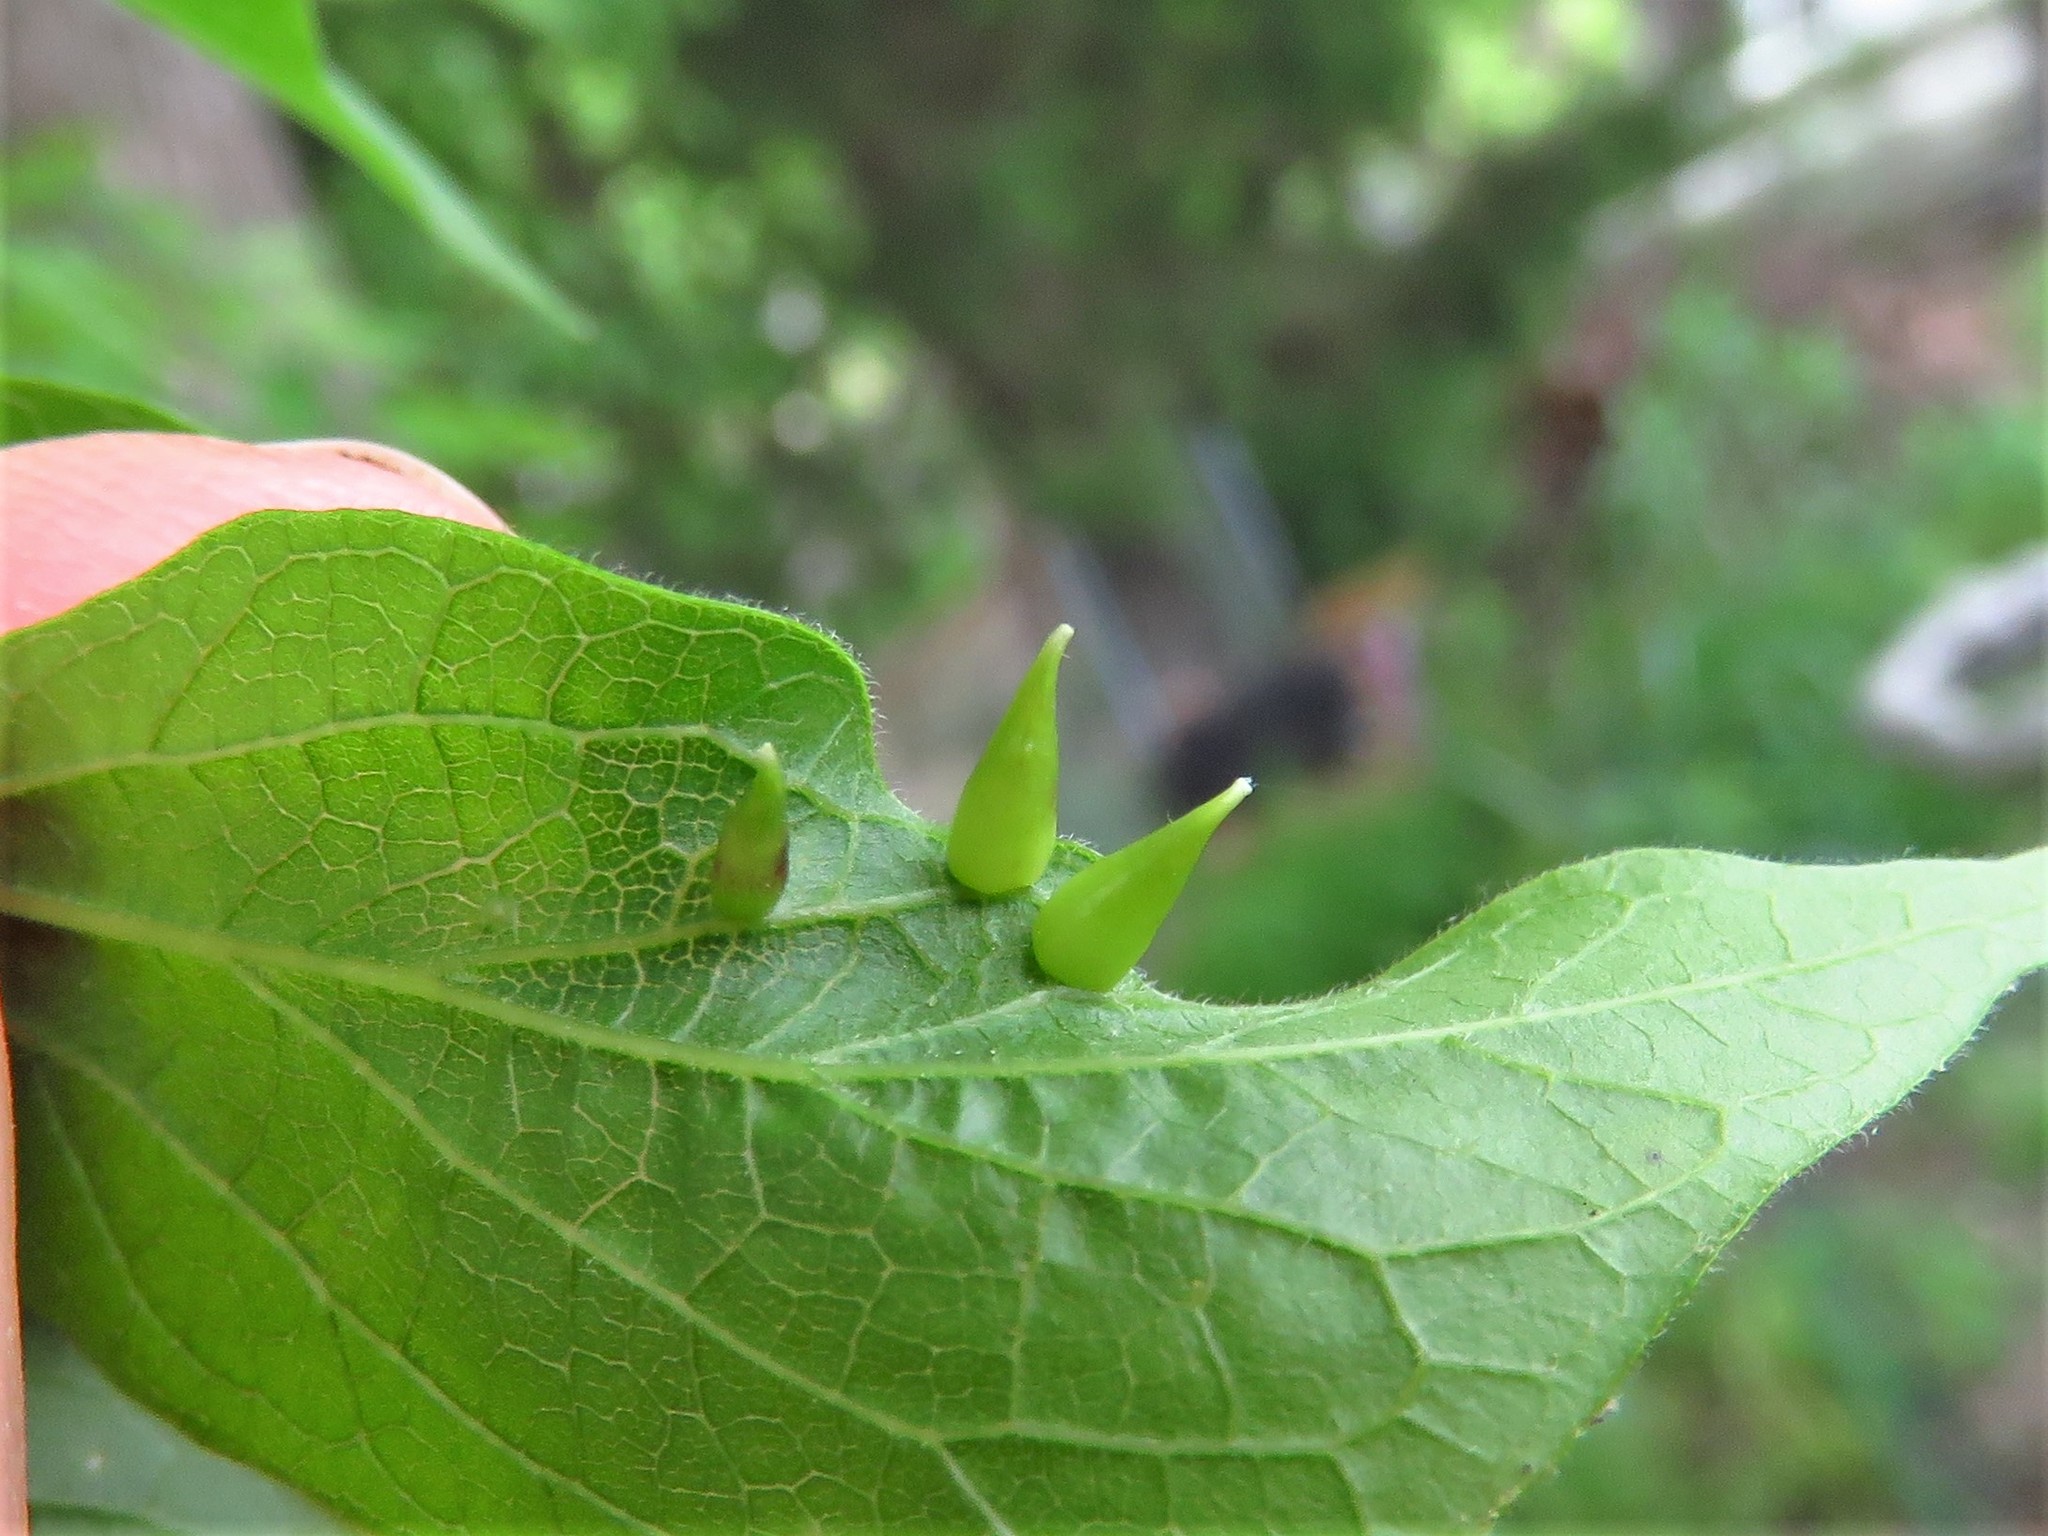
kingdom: Animalia
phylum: Arthropoda
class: Insecta
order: Diptera
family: Cecidomyiidae
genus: Celticecis
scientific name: Celticecis subulata
